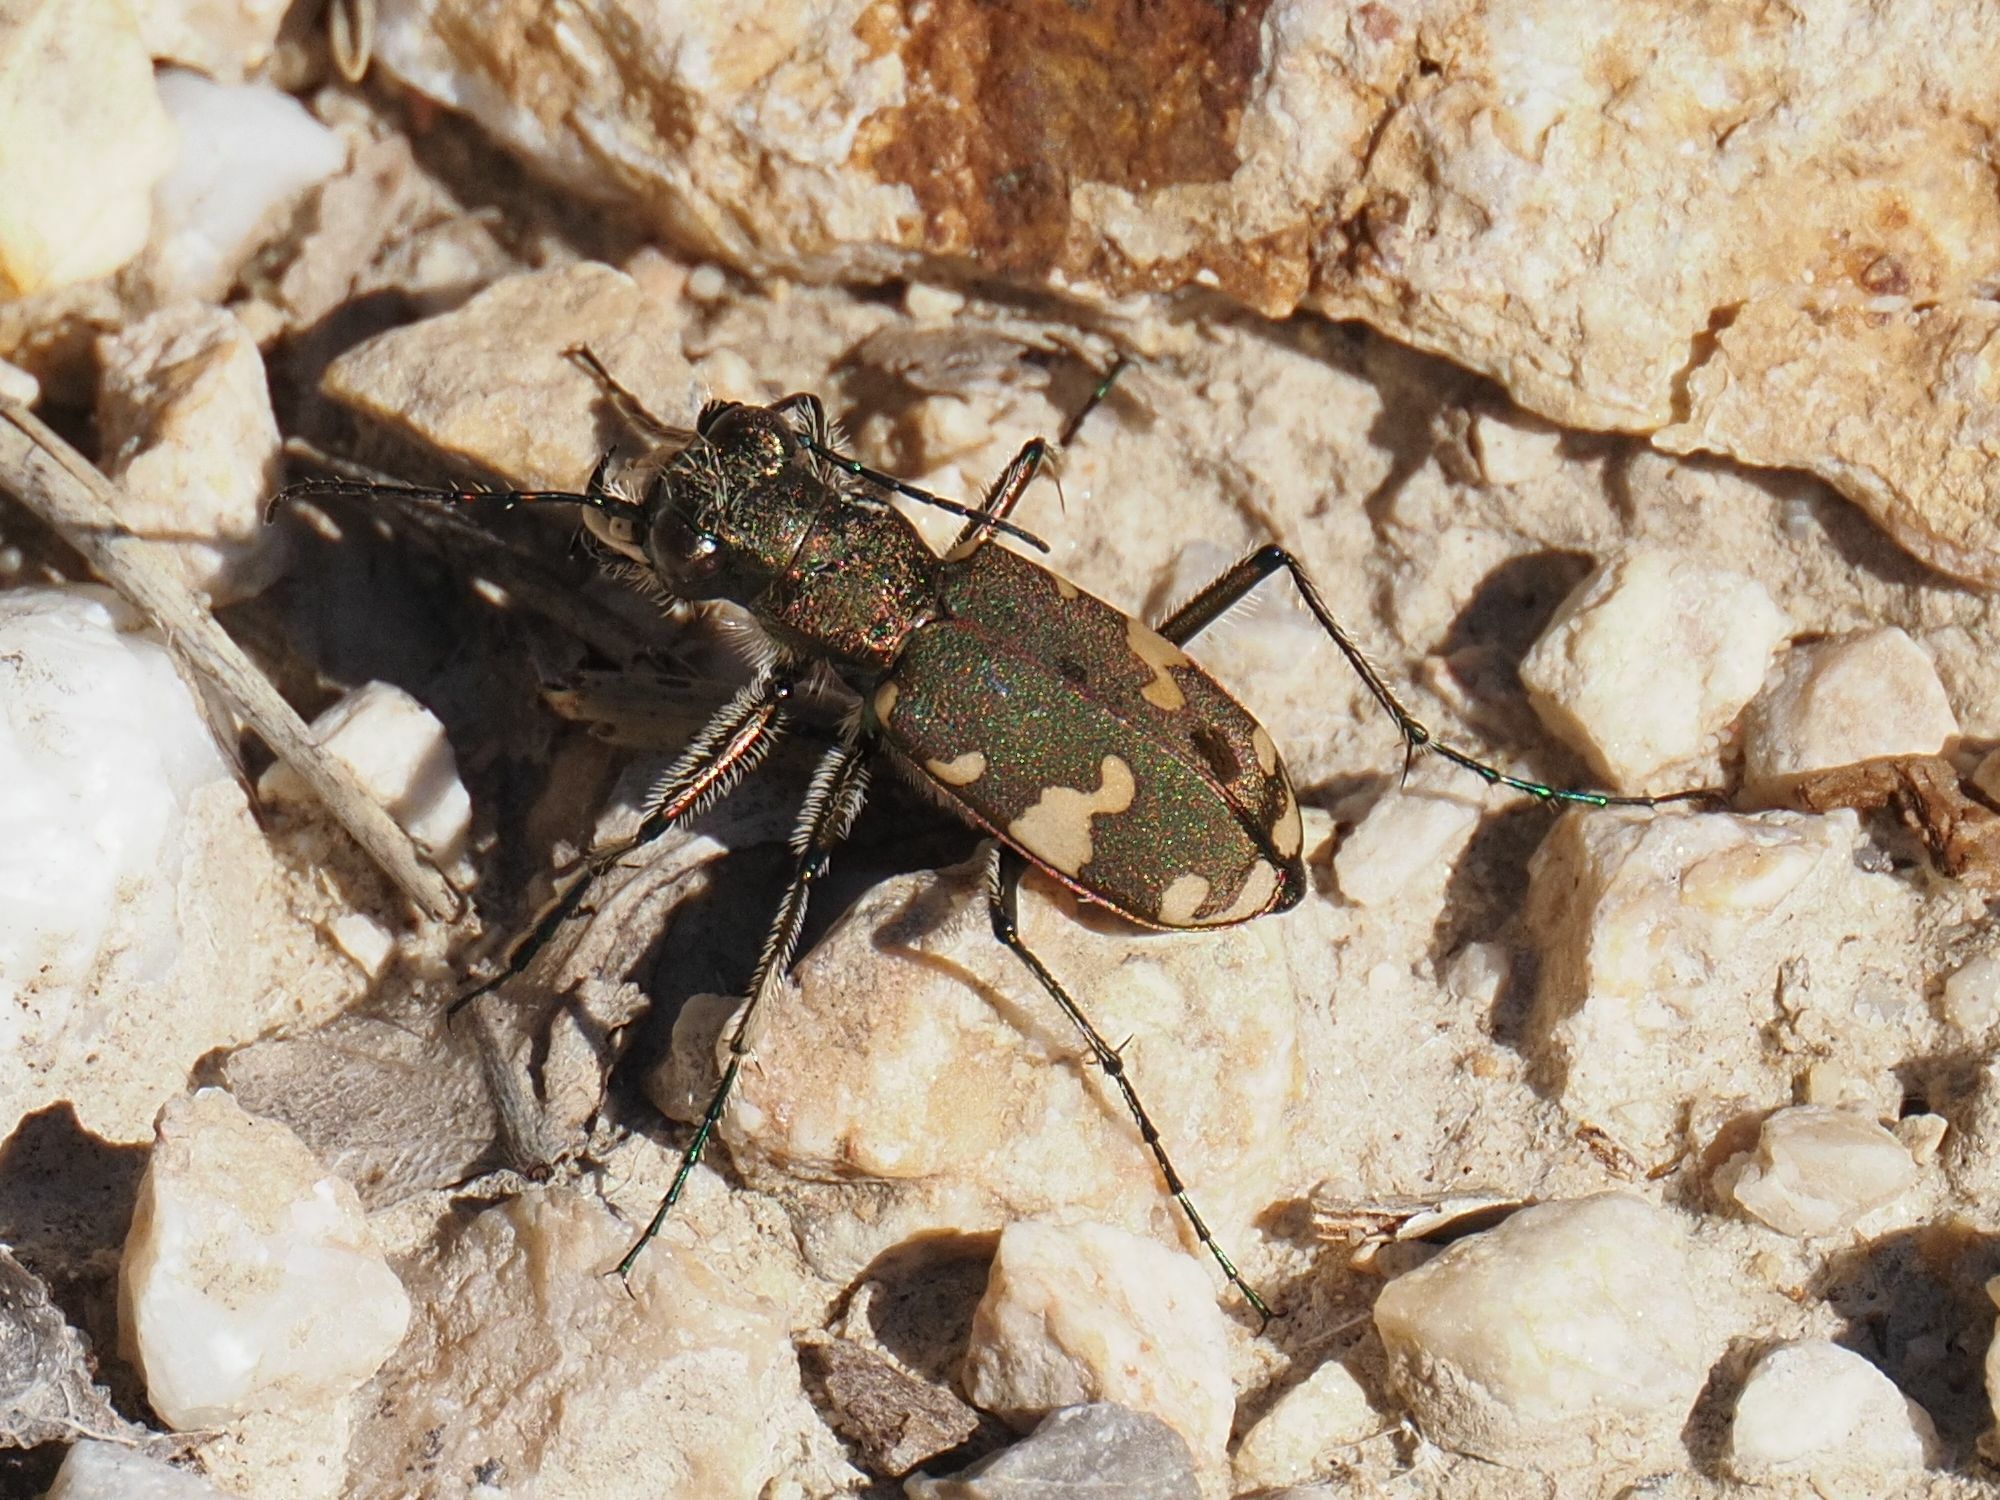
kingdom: Animalia
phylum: Arthropoda
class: Insecta
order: Coleoptera
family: Carabidae
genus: Cicindela
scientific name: Cicindela sylvicola
